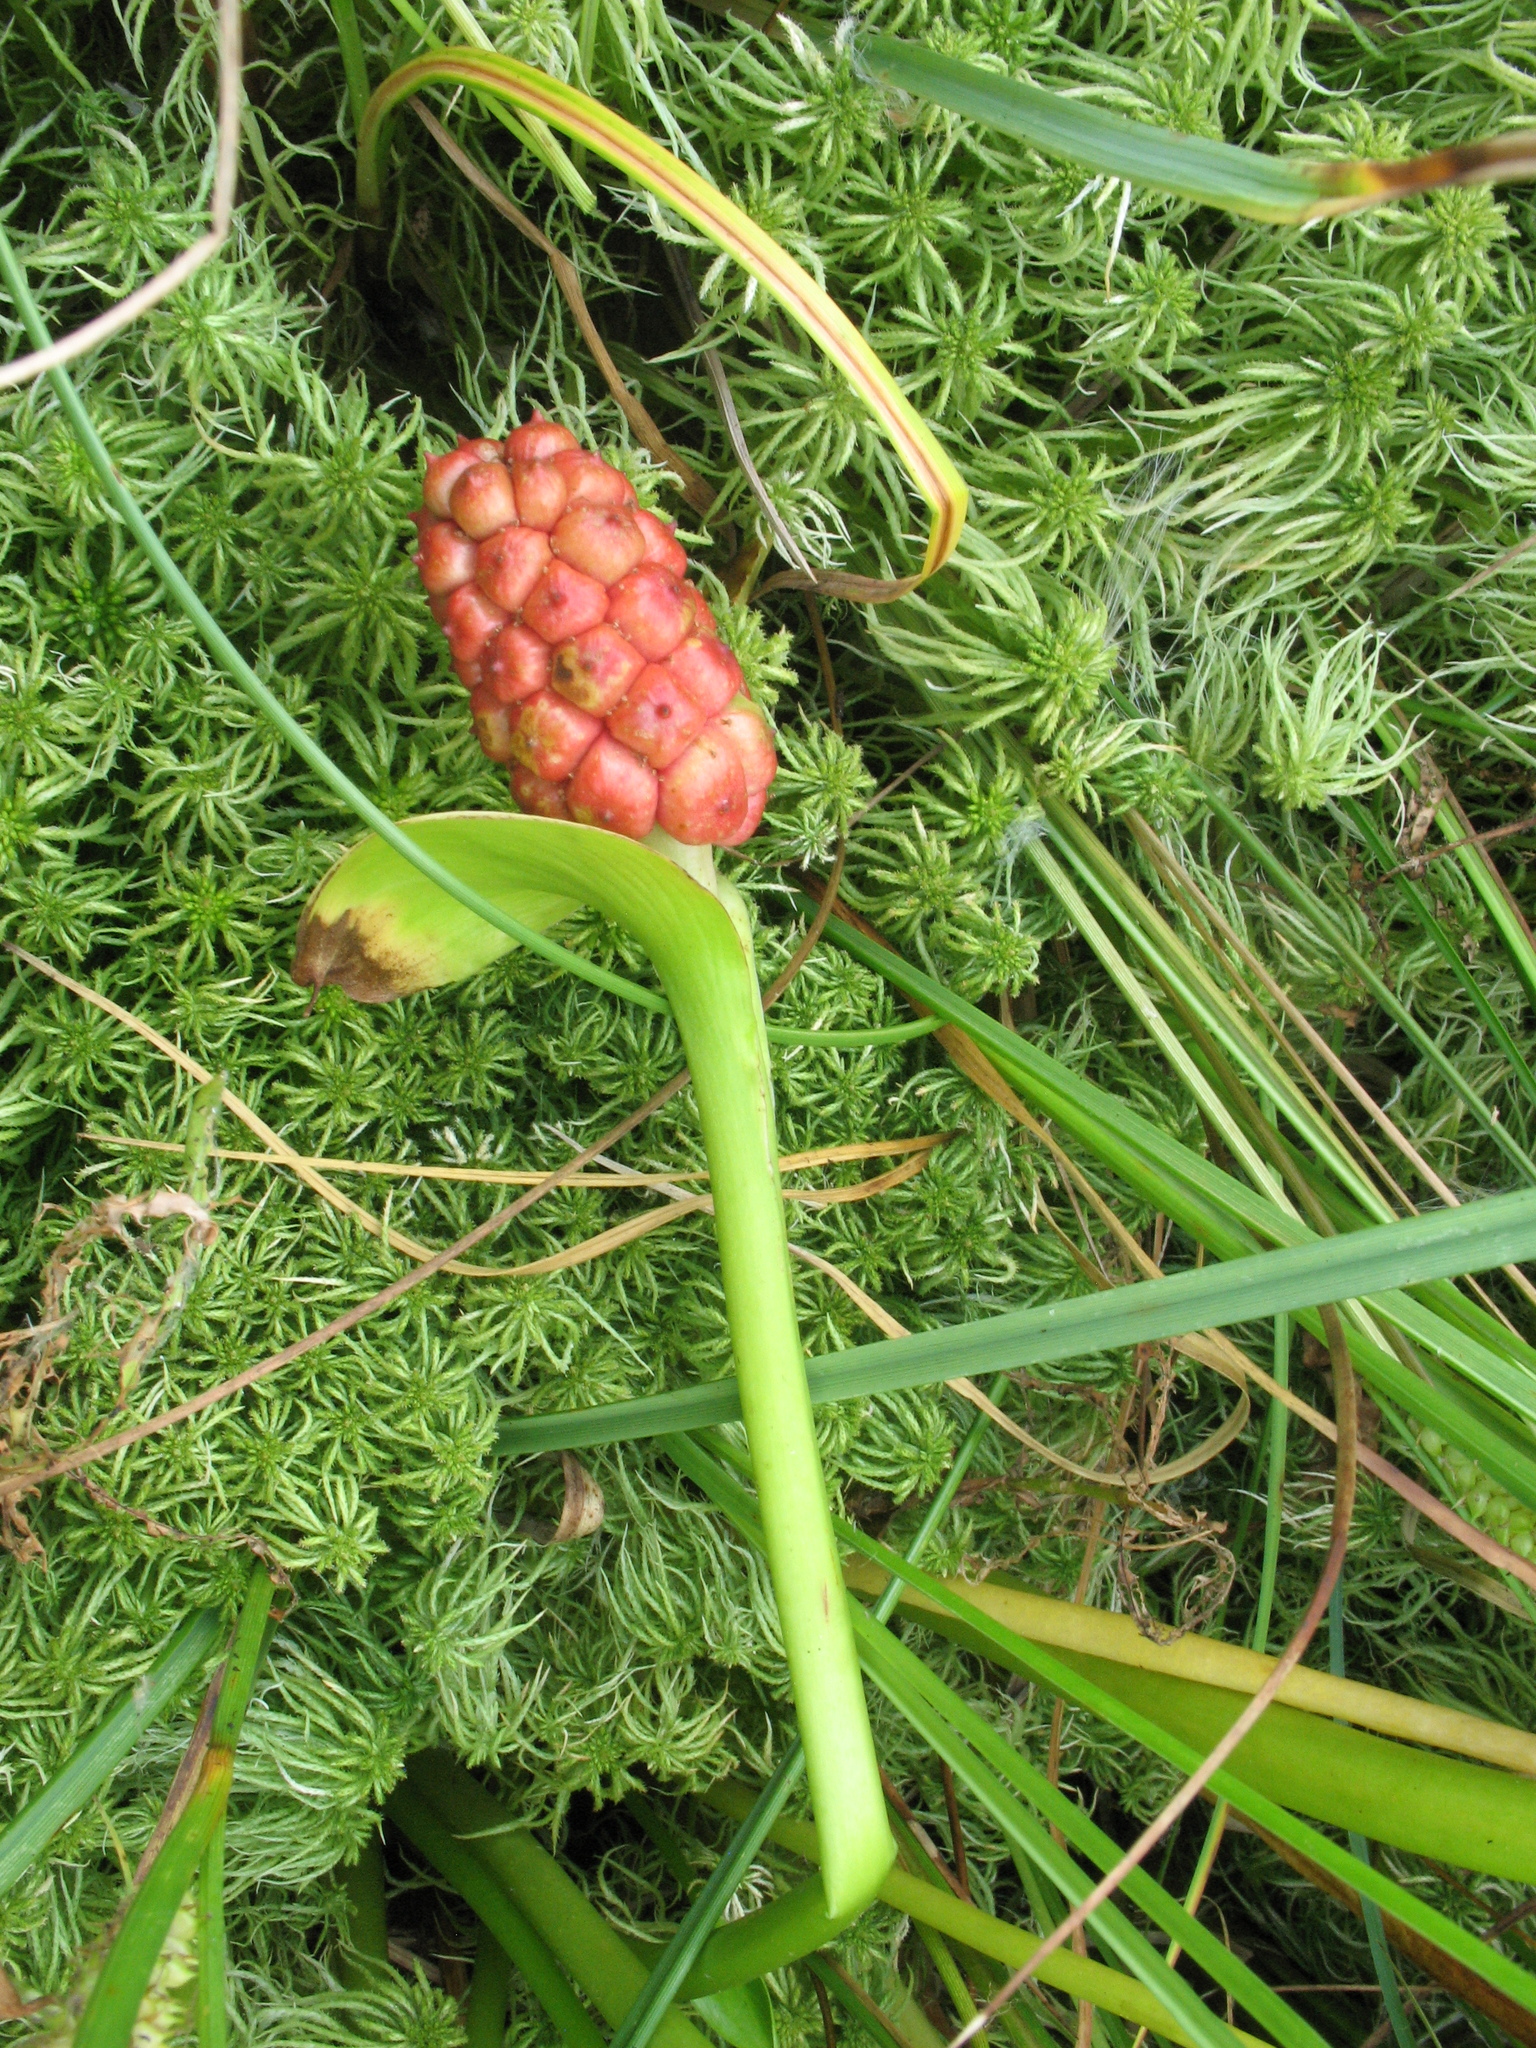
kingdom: Plantae
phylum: Tracheophyta
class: Liliopsida
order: Alismatales
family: Araceae
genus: Calla
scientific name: Calla palustris
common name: Bog arum
